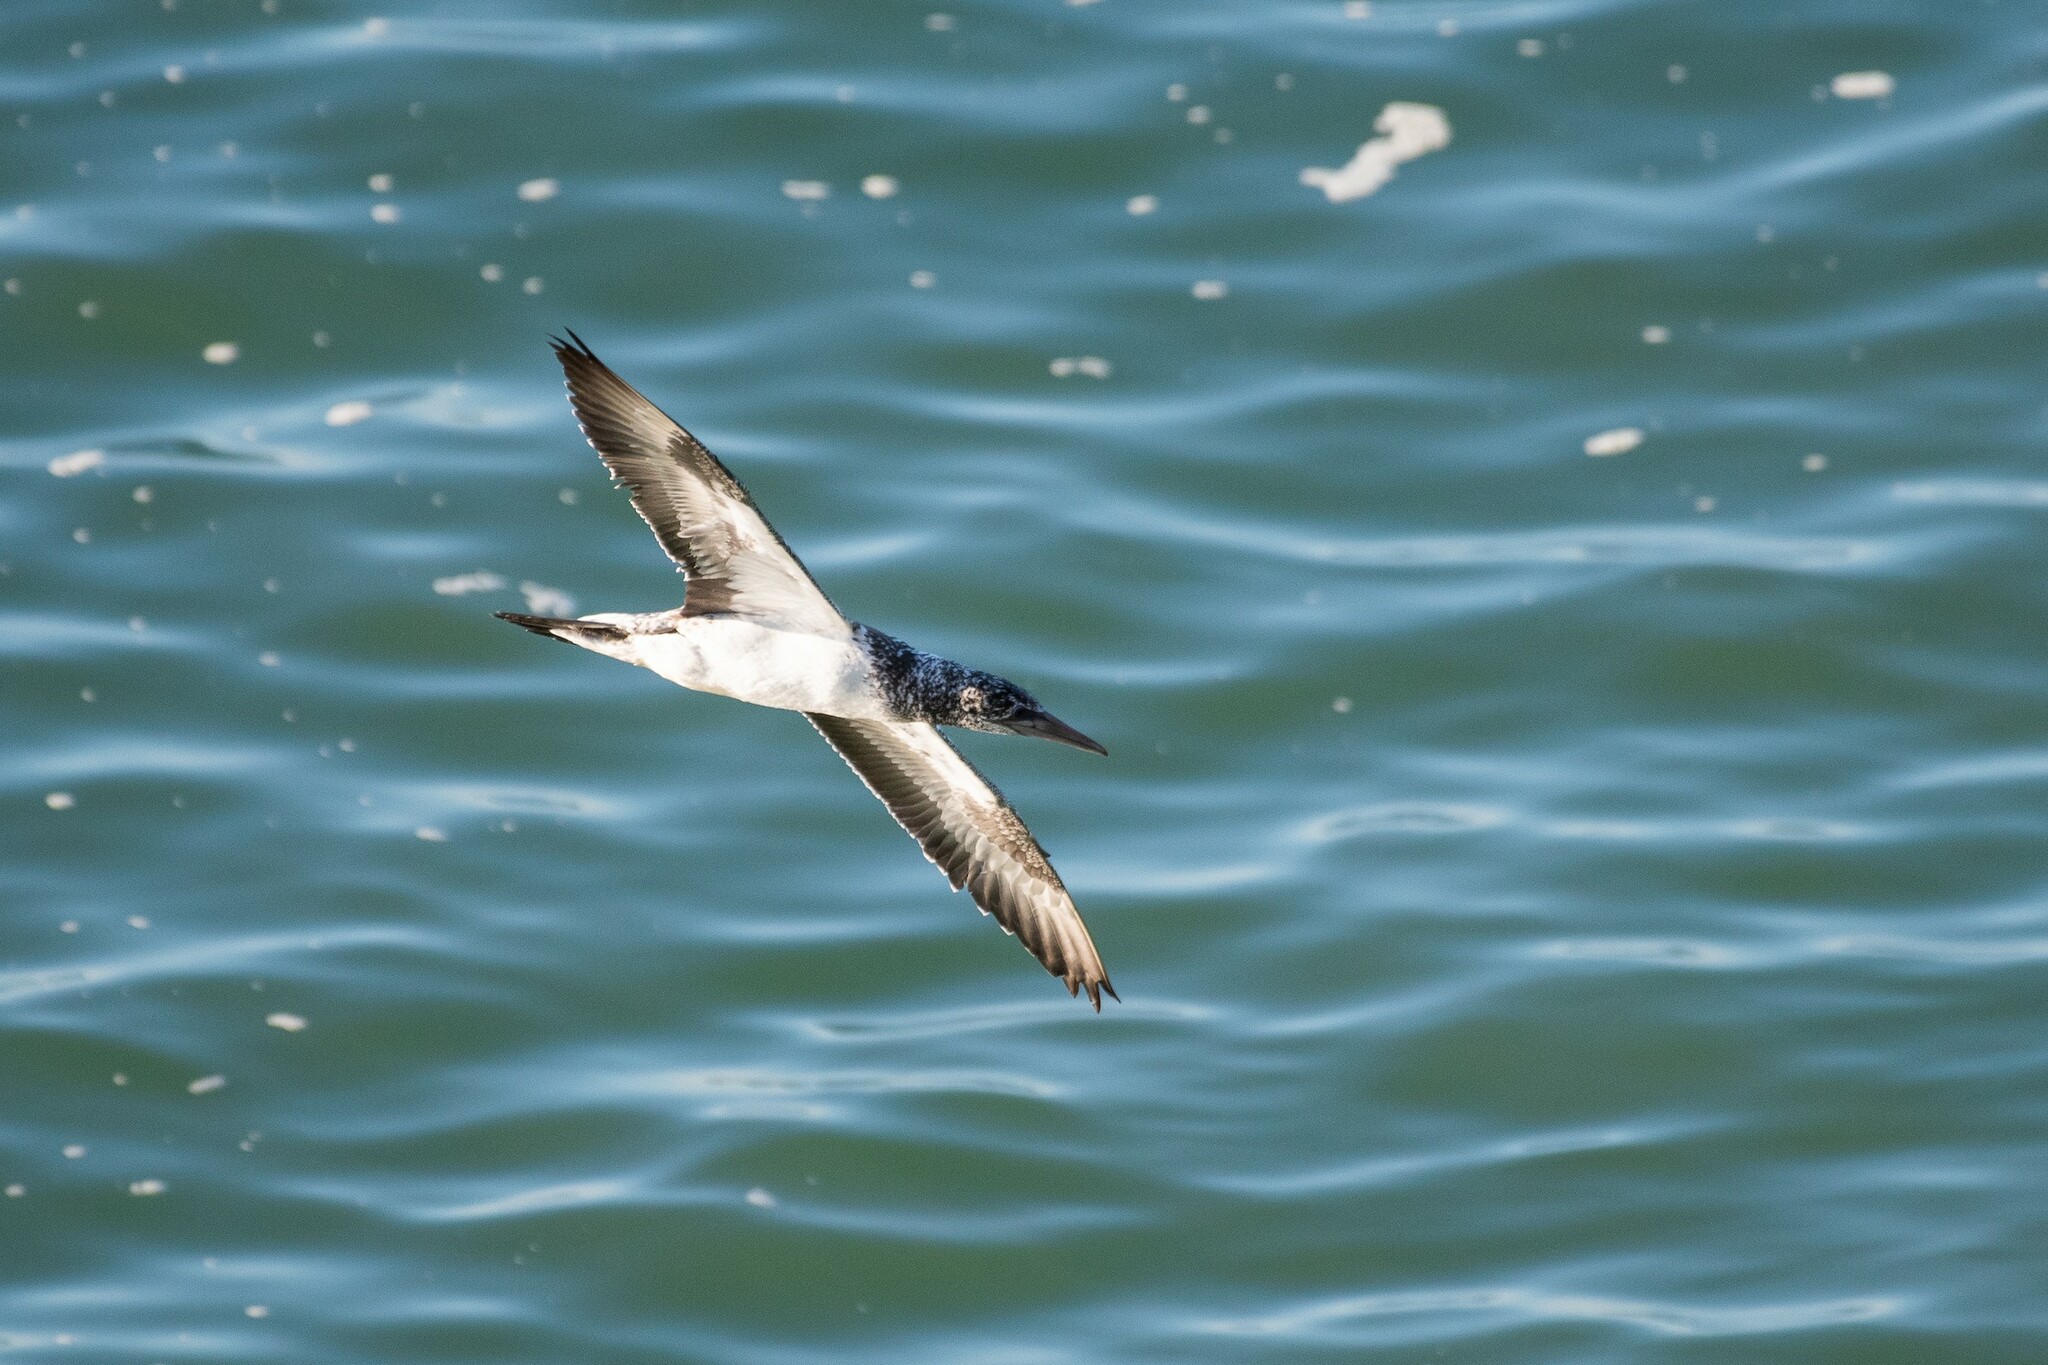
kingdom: Animalia
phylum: Chordata
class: Aves
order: Suliformes
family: Sulidae
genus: Morus
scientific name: Morus serrator
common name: Australasian gannet
